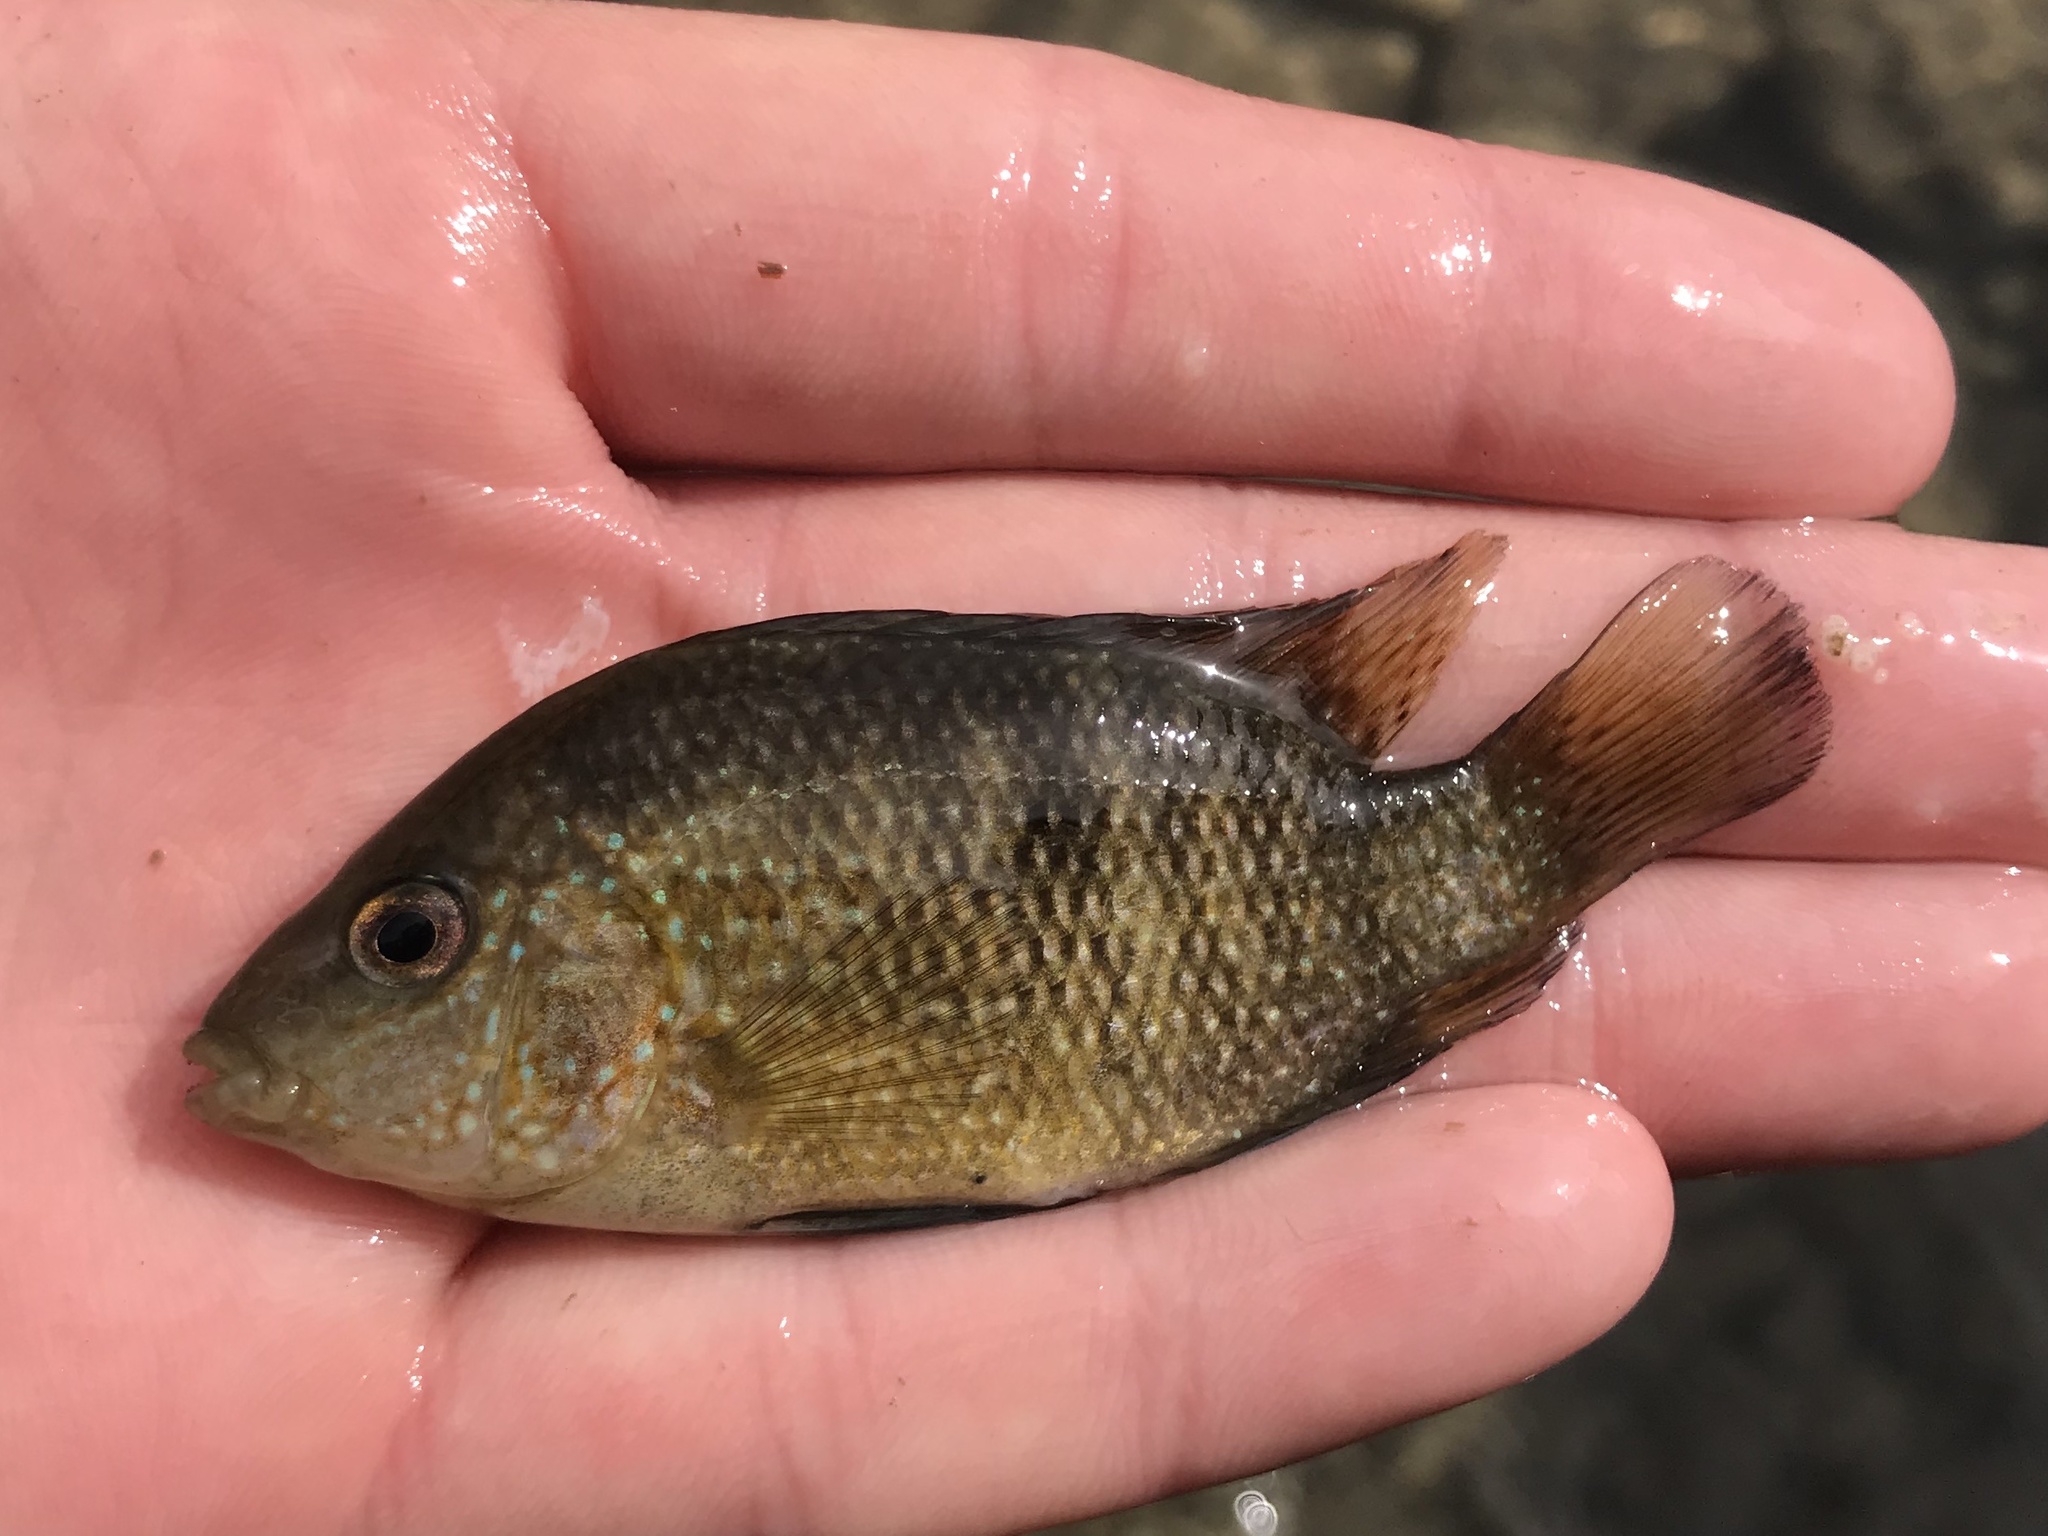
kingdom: Animalia
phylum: Chordata
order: Perciformes
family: Cichlidae
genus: Herichthys
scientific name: Herichthys cyanoguttatus
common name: Rio grande cichlid
